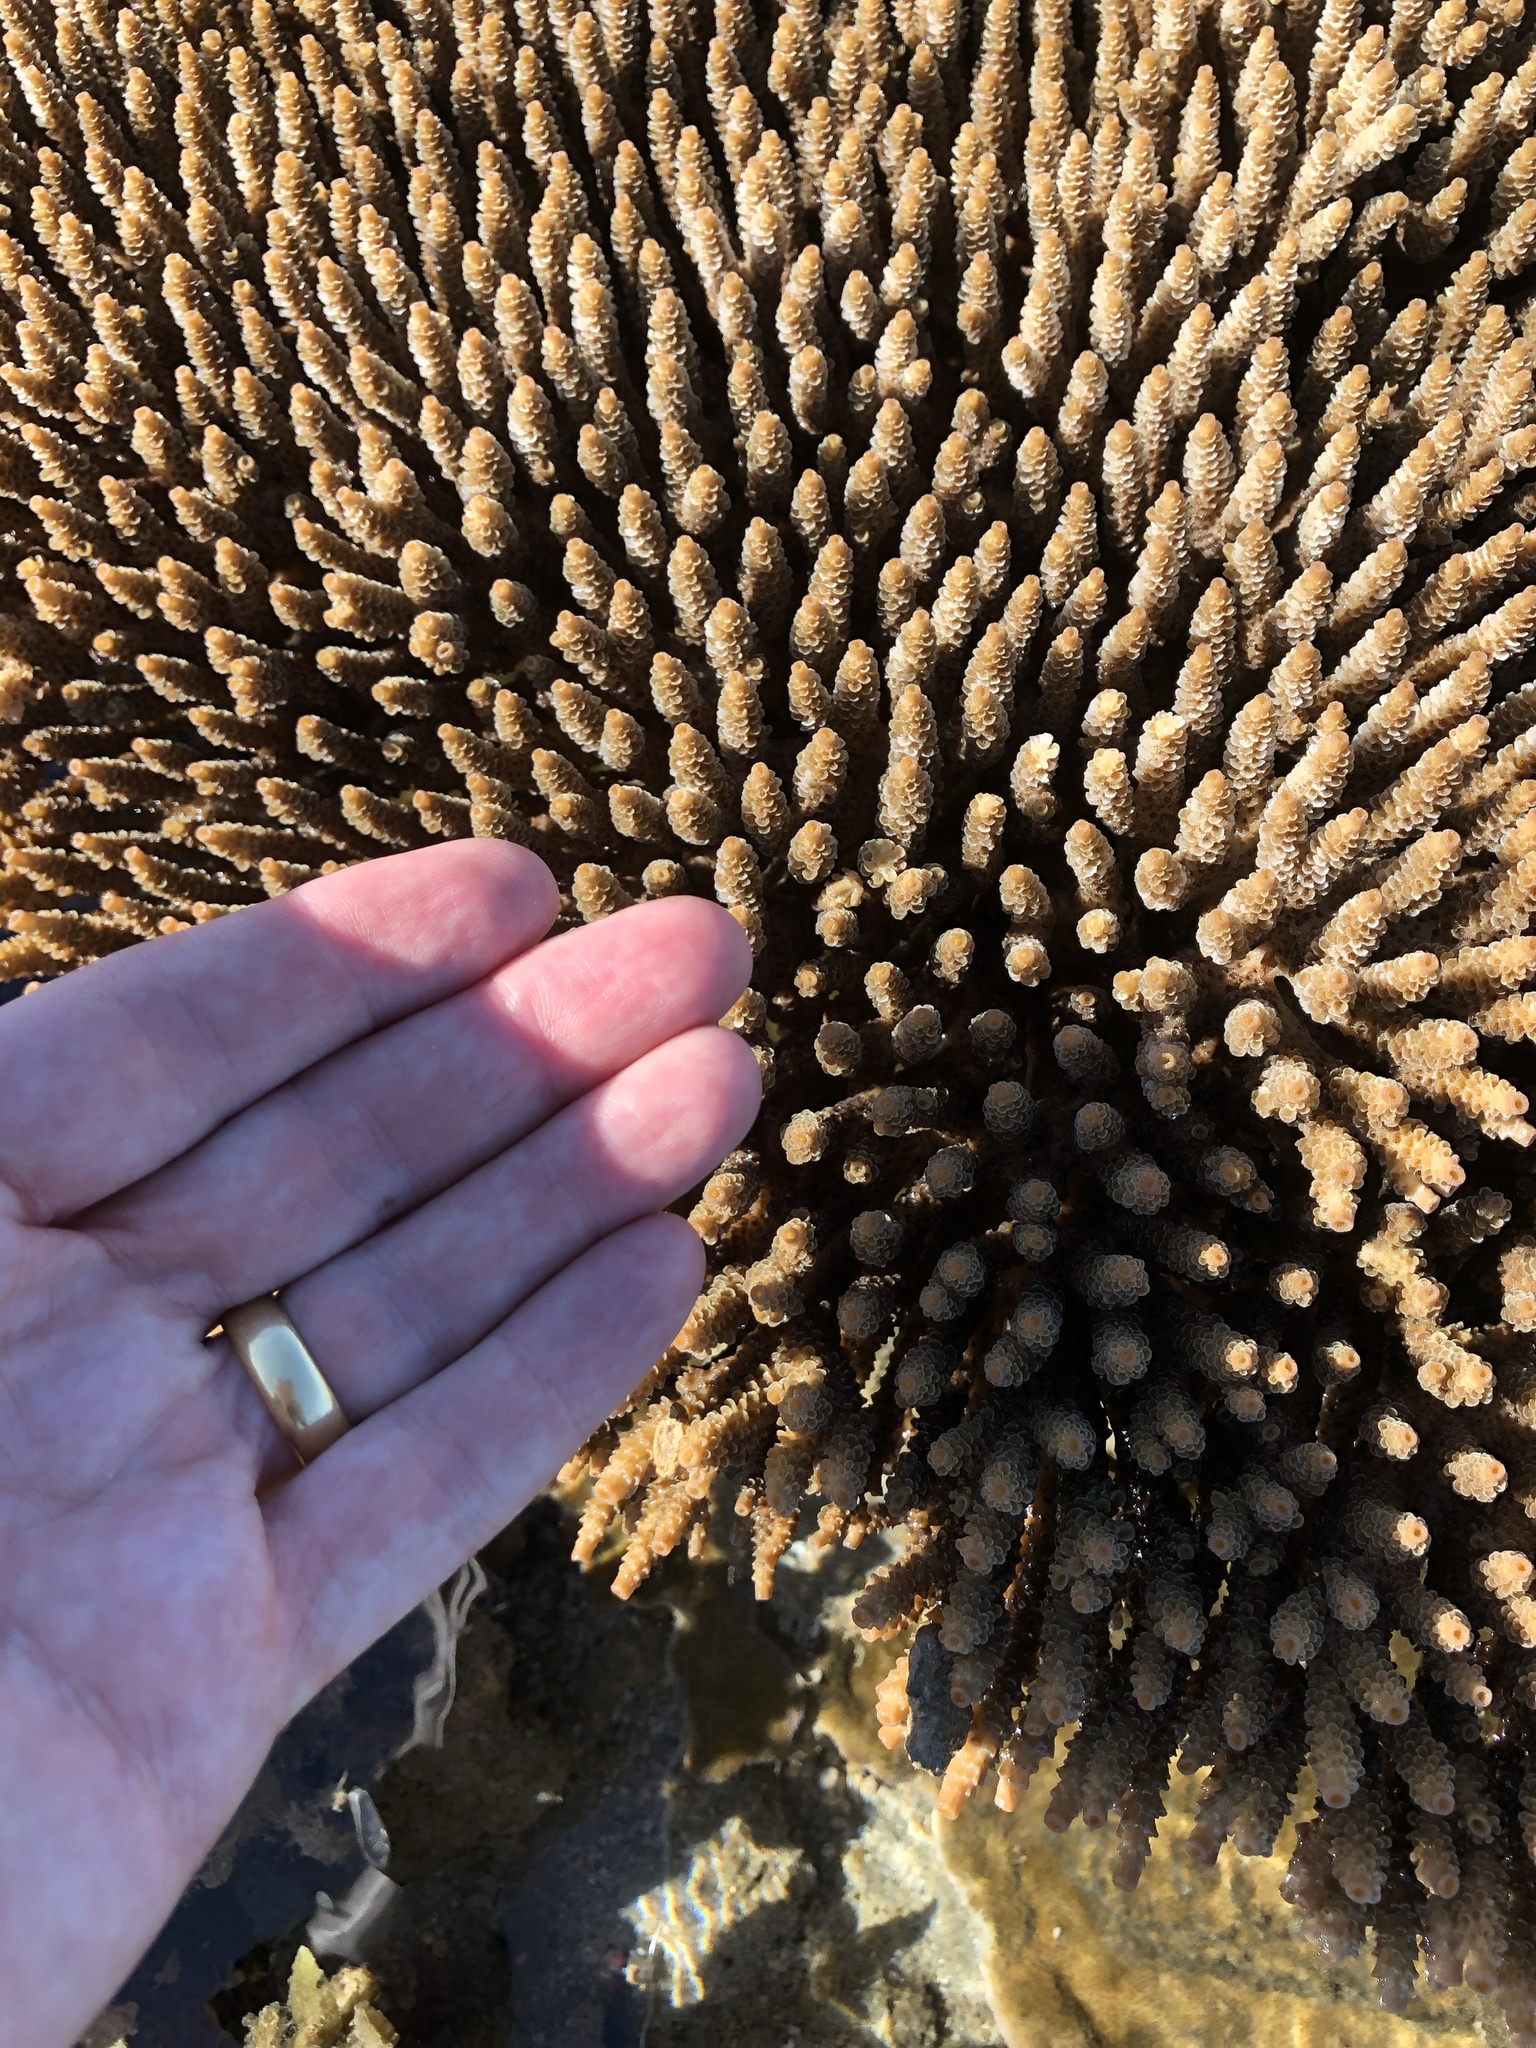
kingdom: Animalia
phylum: Cnidaria
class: Anthozoa
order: Scleractinia
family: Acroporidae
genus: Acropora
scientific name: Acropora millepora
